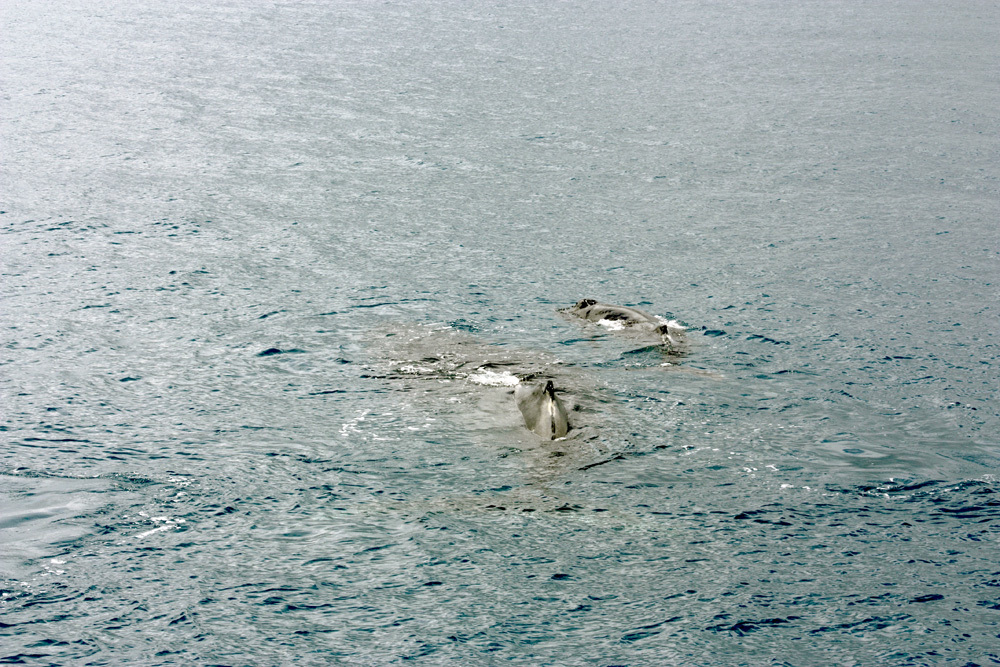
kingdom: Animalia
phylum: Chordata
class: Mammalia
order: Cetacea
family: Balaenopteridae
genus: Megaptera
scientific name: Megaptera novaeangliae
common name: Humpback whale
